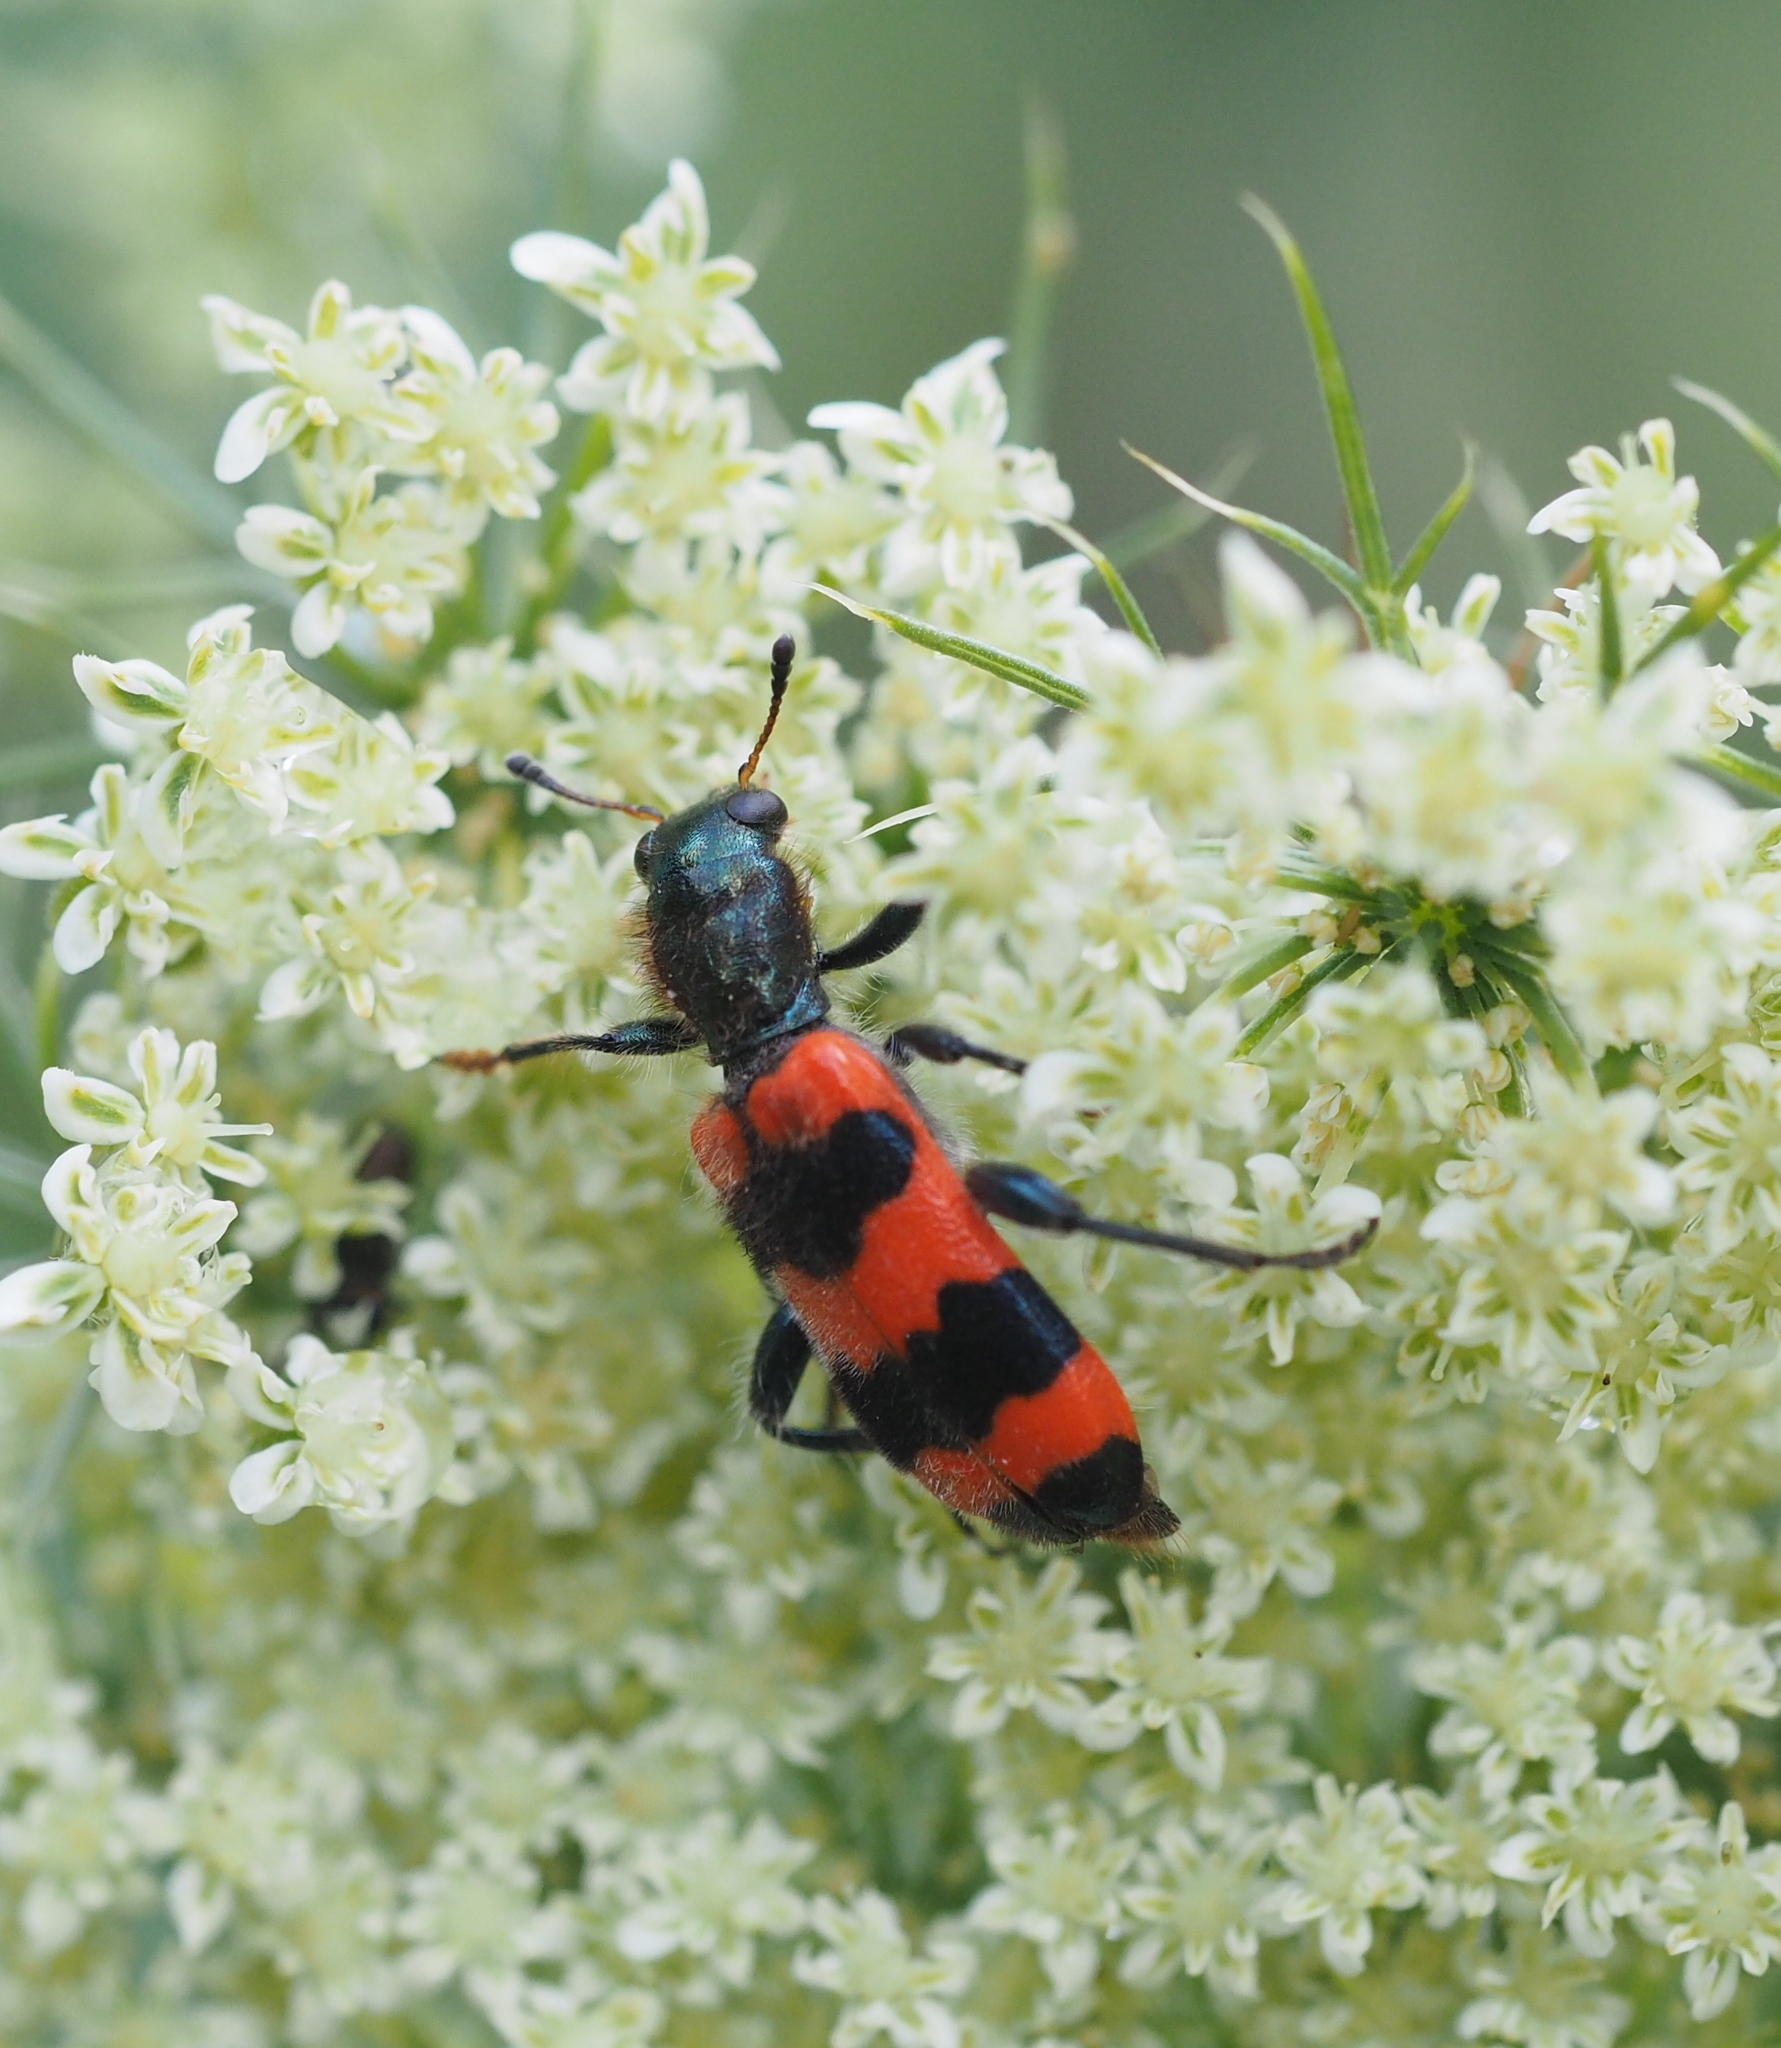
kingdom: Animalia
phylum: Arthropoda
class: Insecta
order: Coleoptera
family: Cleridae
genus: Trichodes
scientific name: Trichodes apiarius
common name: Bee-eating beetle
